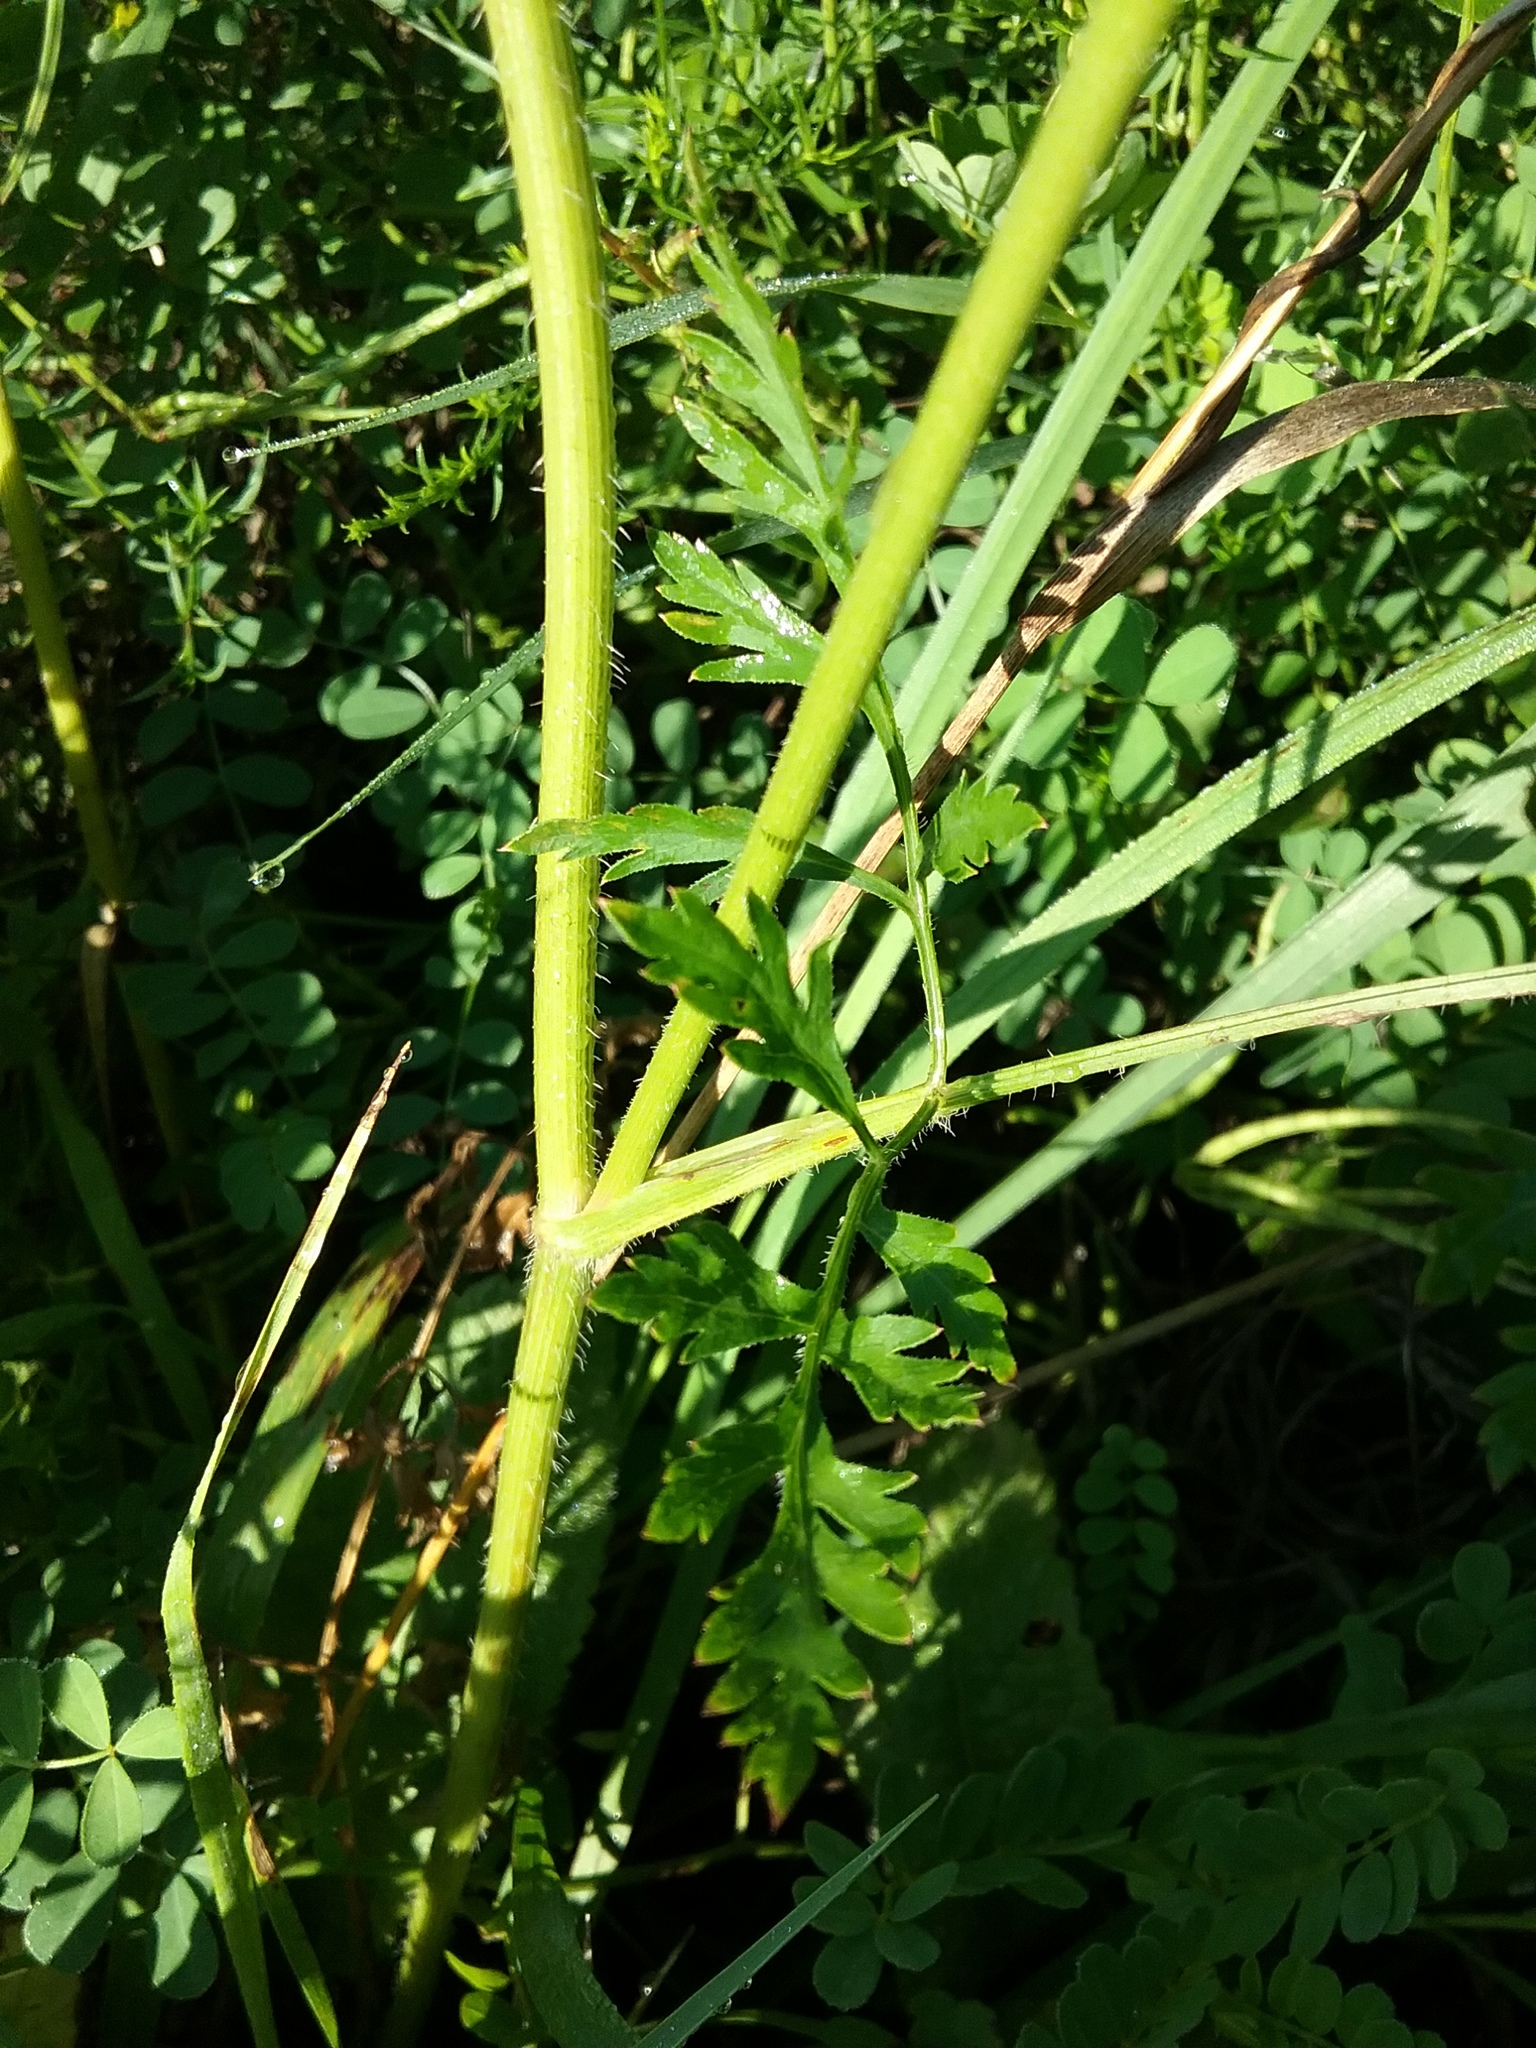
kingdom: Plantae
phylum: Tracheophyta
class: Magnoliopsida
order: Apiales
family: Apiaceae
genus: Daucus
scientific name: Daucus carota
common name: Wild carrot
